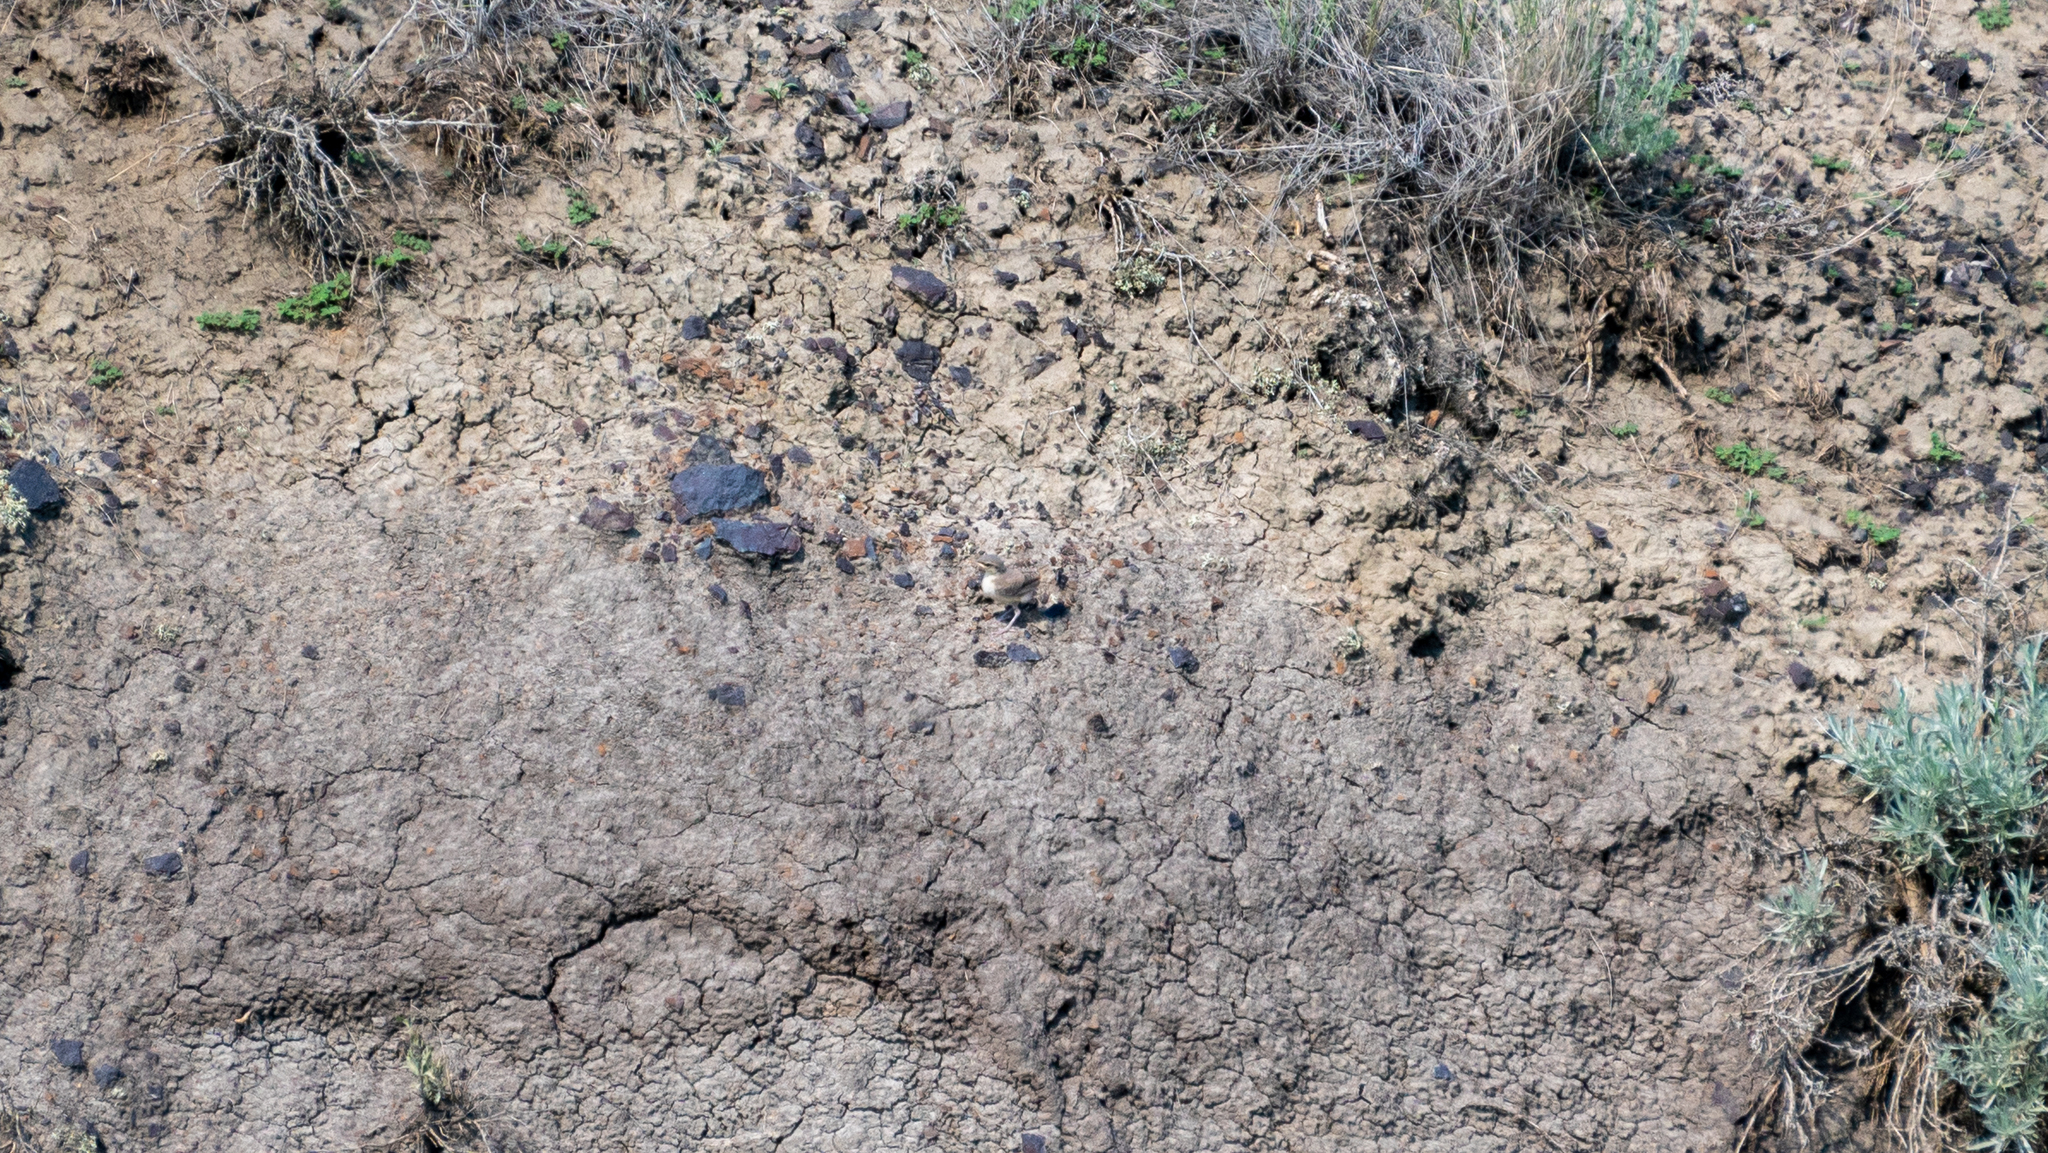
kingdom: Animalia
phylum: Chordata
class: Aves
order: Passeriformes
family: Troglodytidae
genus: Salpinctes
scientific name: Salpinctes obsoletus
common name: Rock wren
